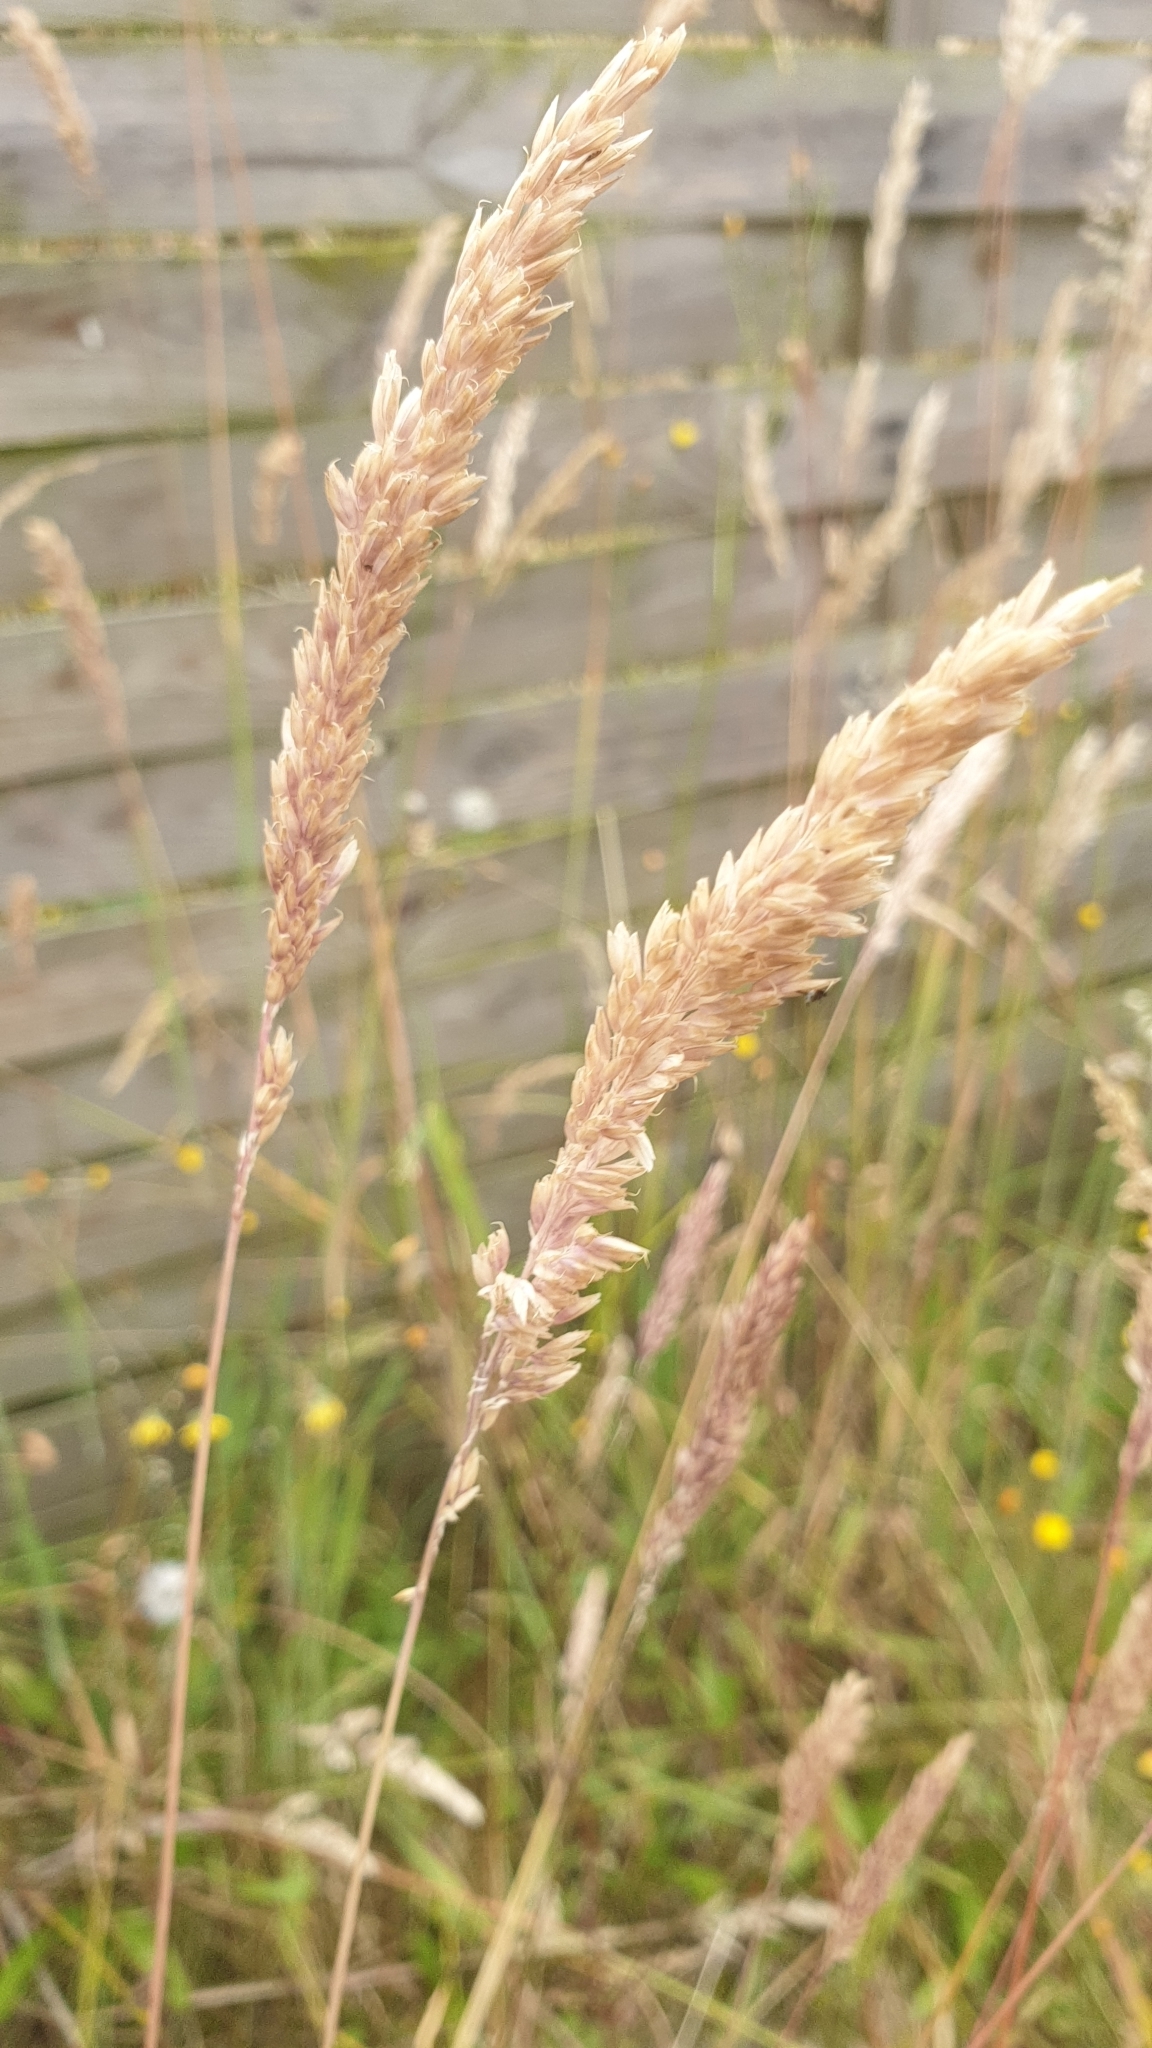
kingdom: Plantae
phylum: Tracheophyta
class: Liliopsida
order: Poales
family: Poaceae
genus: Holcus
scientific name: Holcus lanatus
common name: Yorkshire-fog
